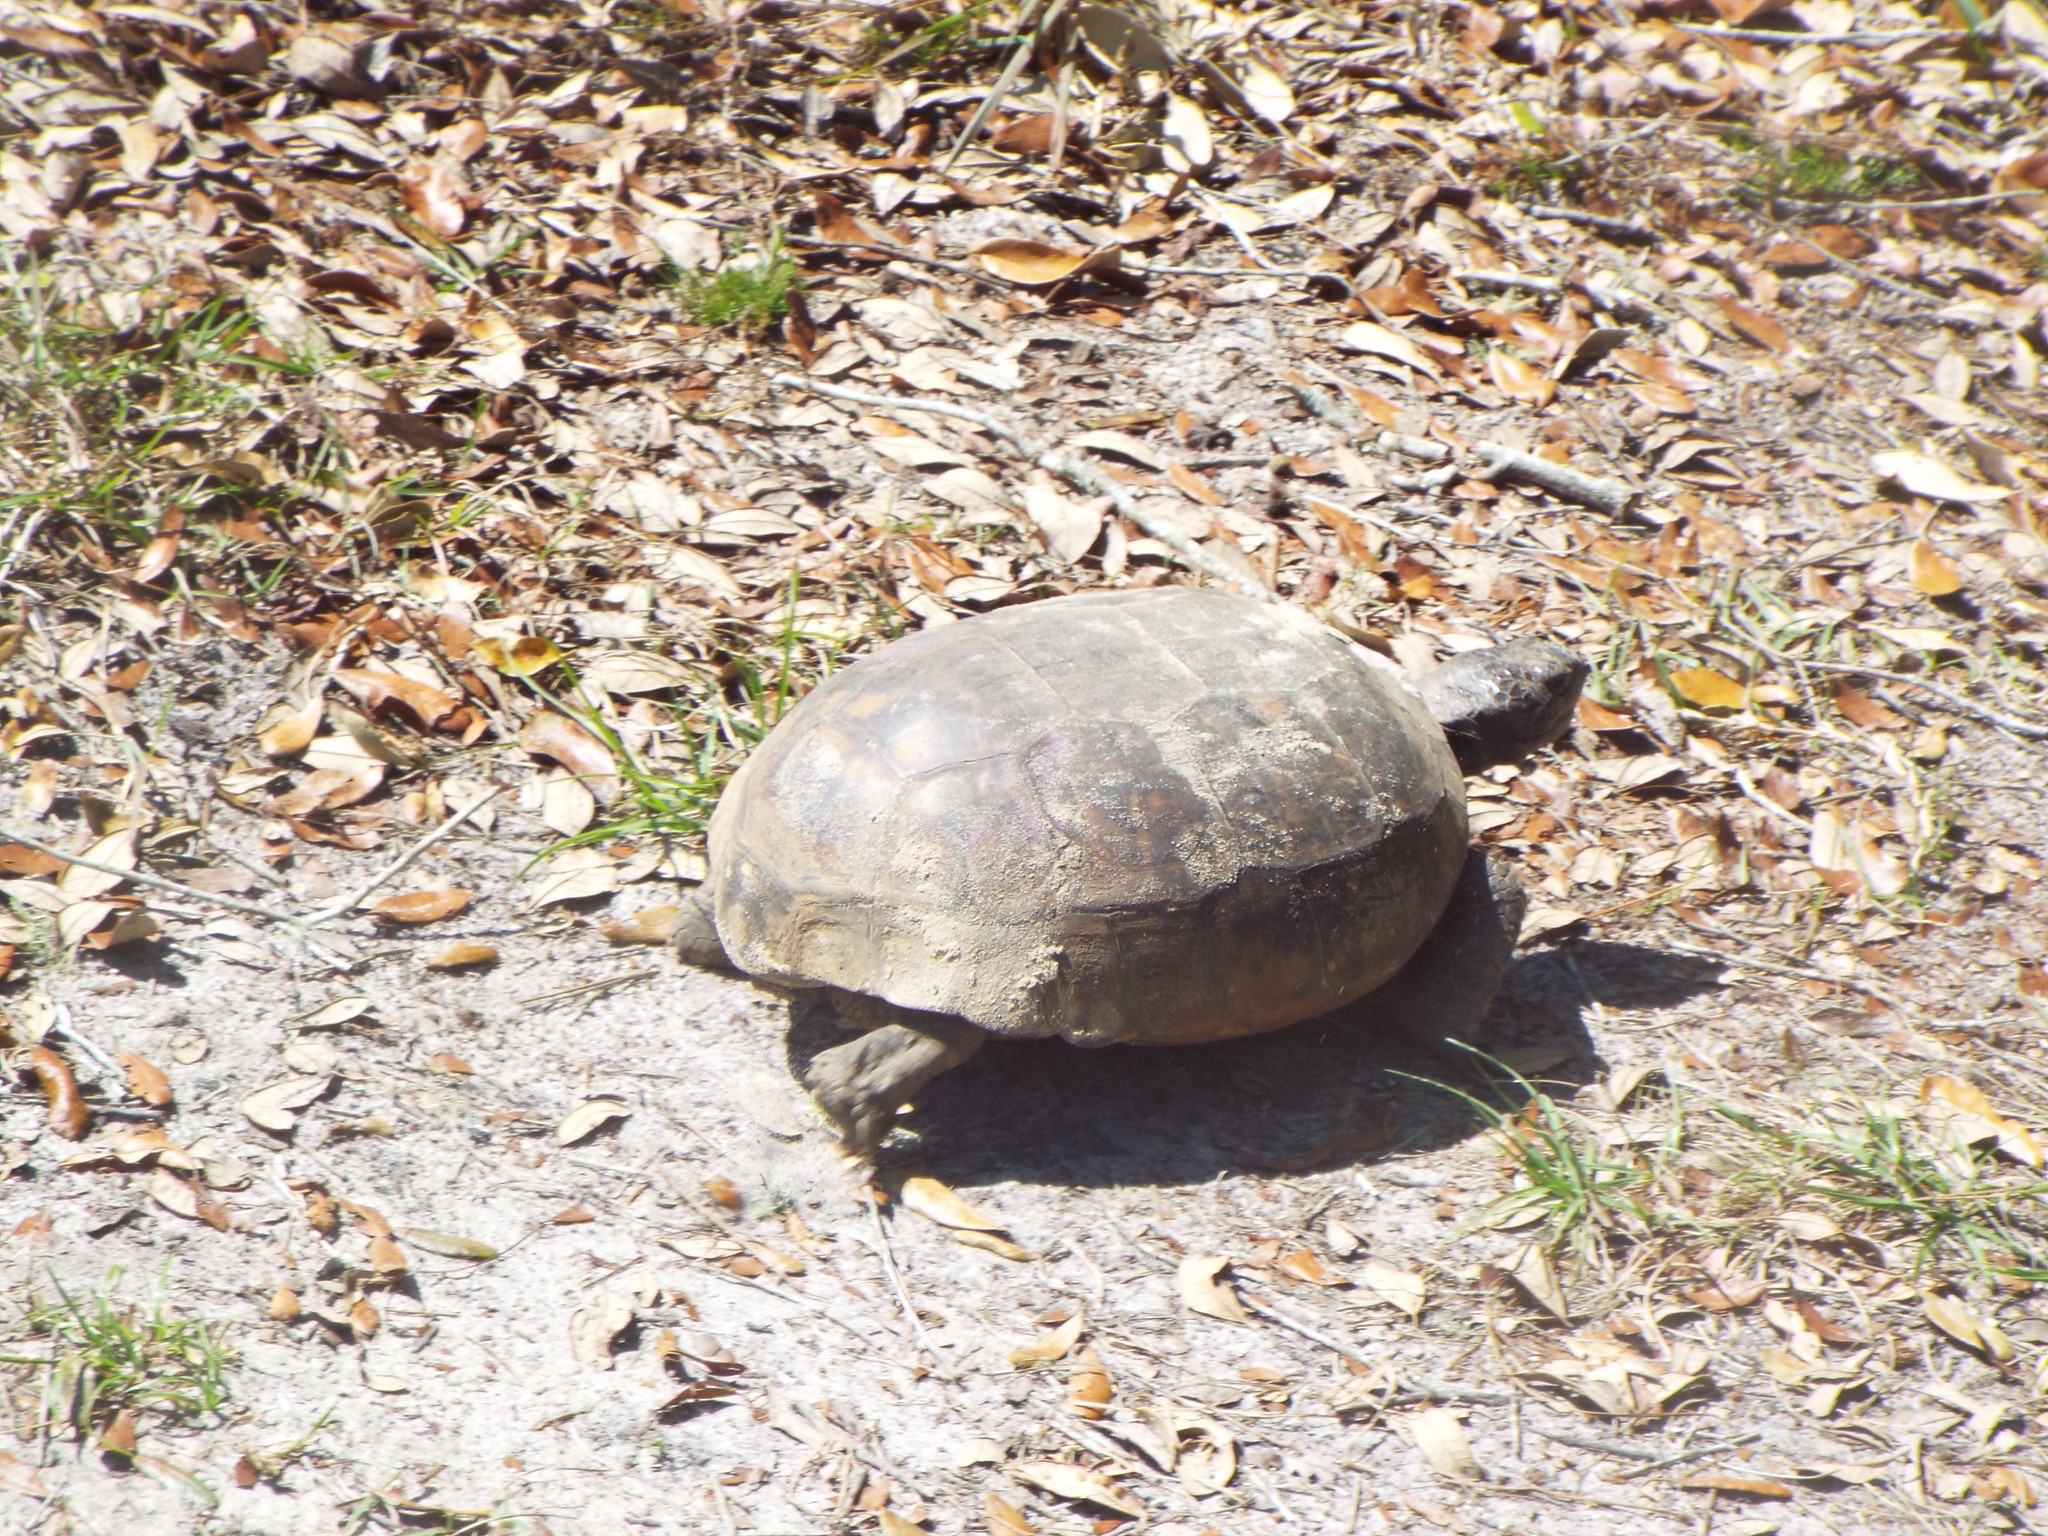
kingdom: Animalia
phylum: Chordata
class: Testudines
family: Testudinidae
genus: Gopherus
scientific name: Gopherus polyphemus
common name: Florida gopher tortoise
